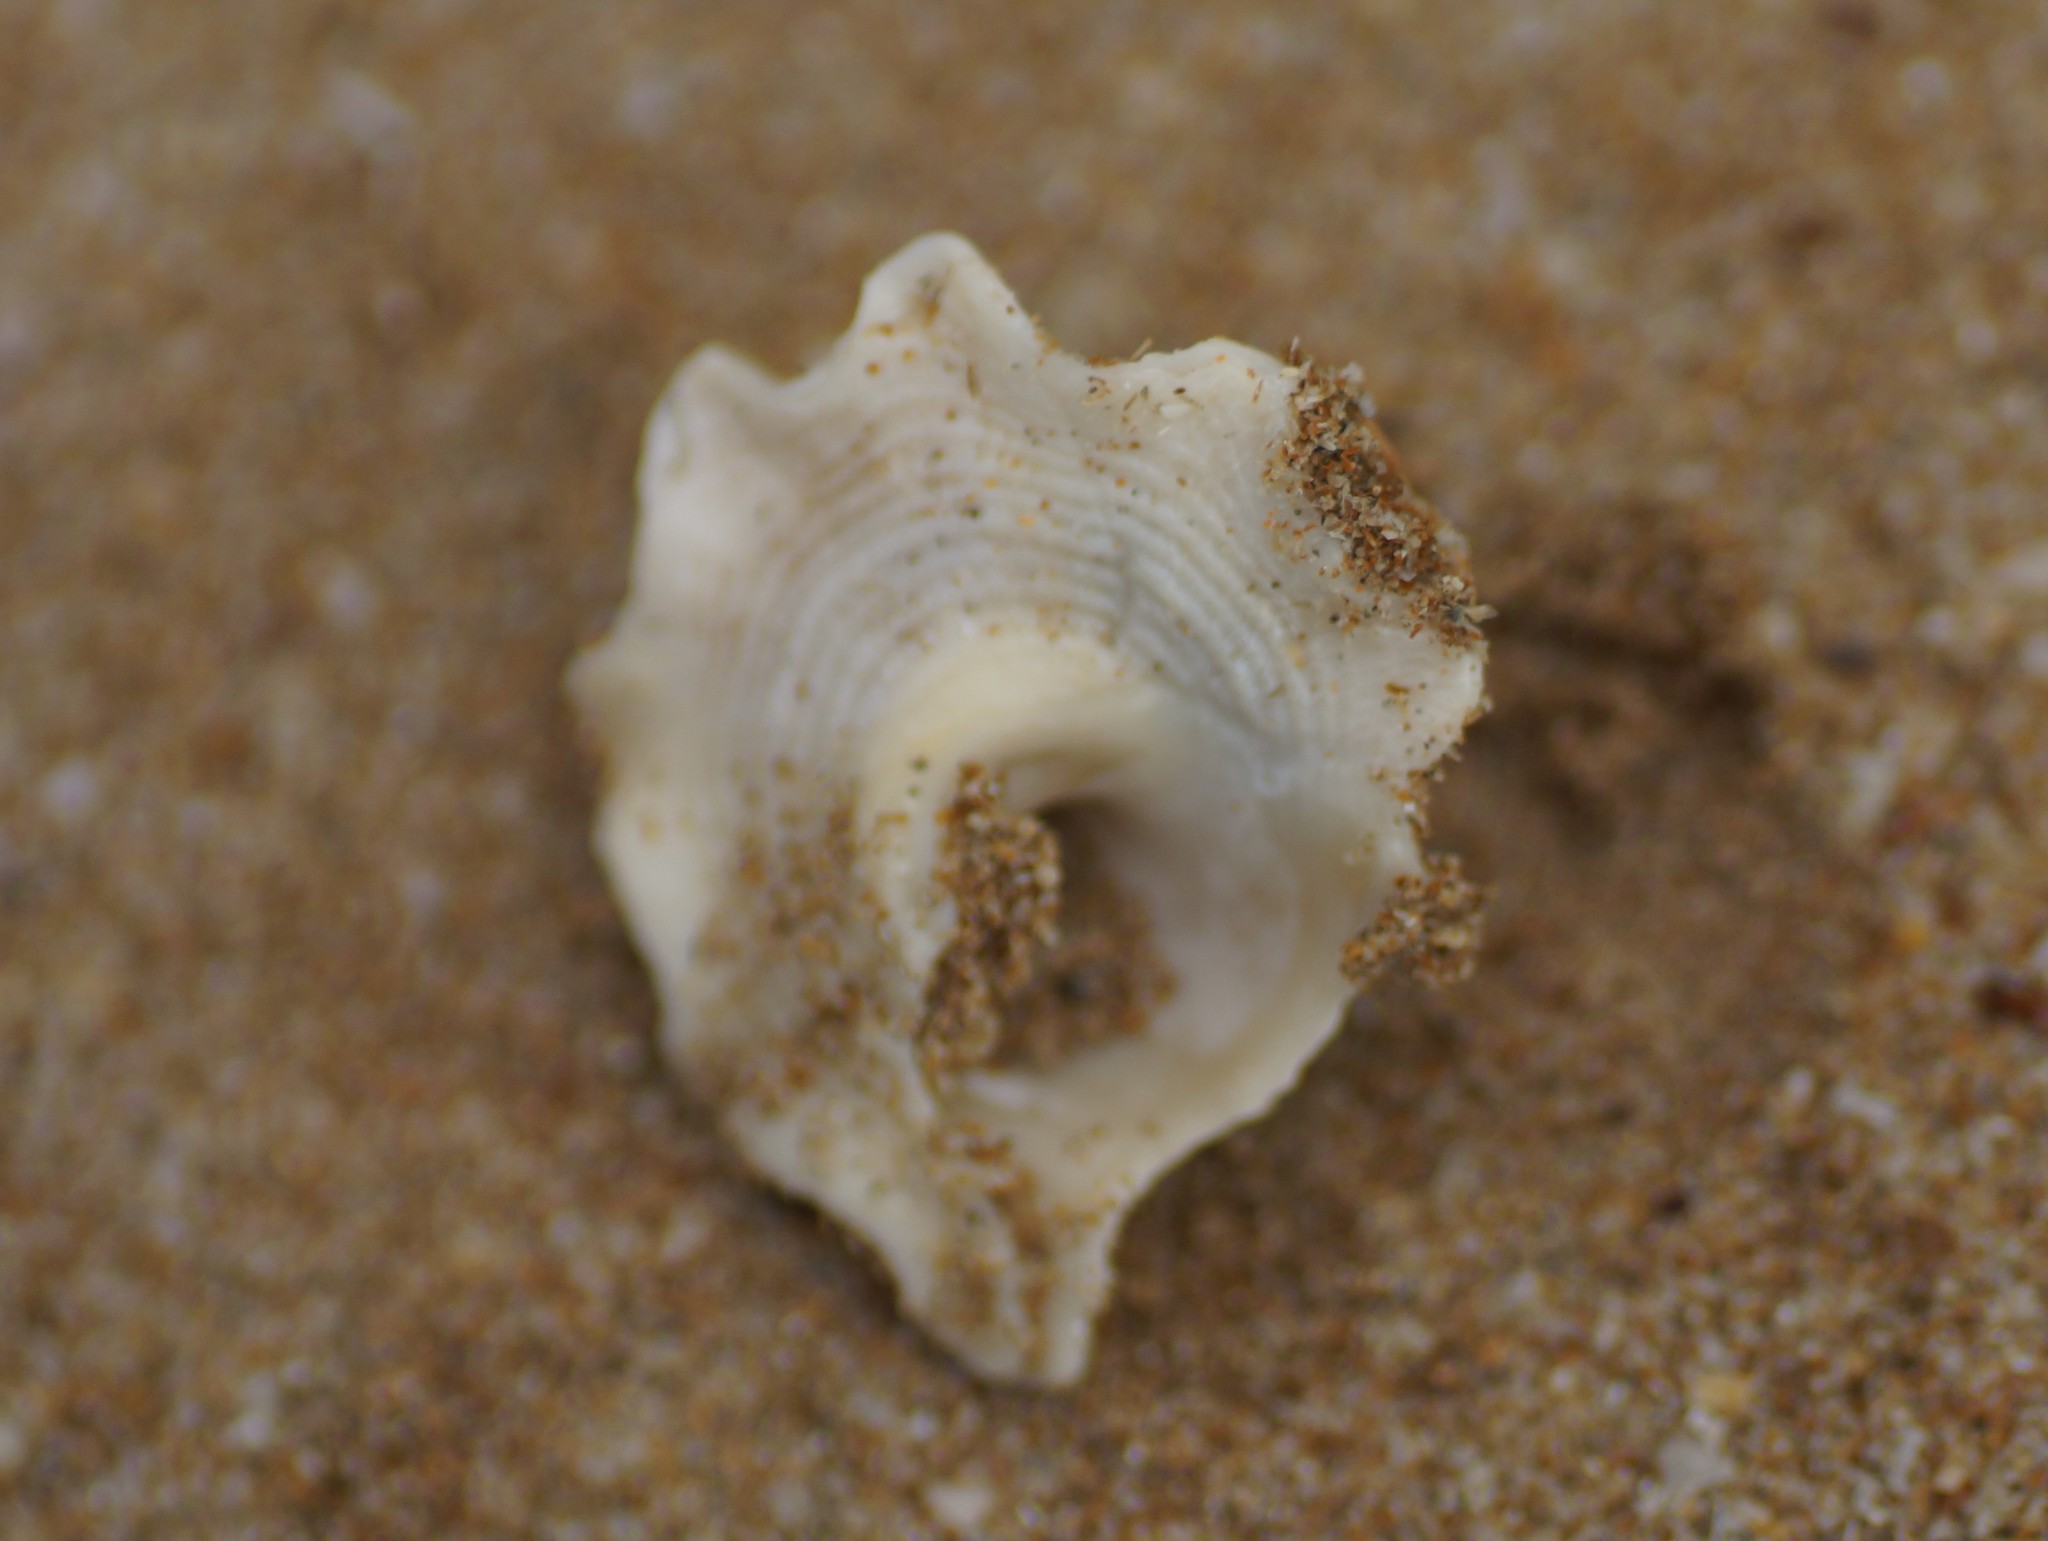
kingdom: Animalia
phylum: Mollusca
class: Gastropoda
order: Trochida
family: Turbinidae
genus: Astralium
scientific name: Astralium stellare
